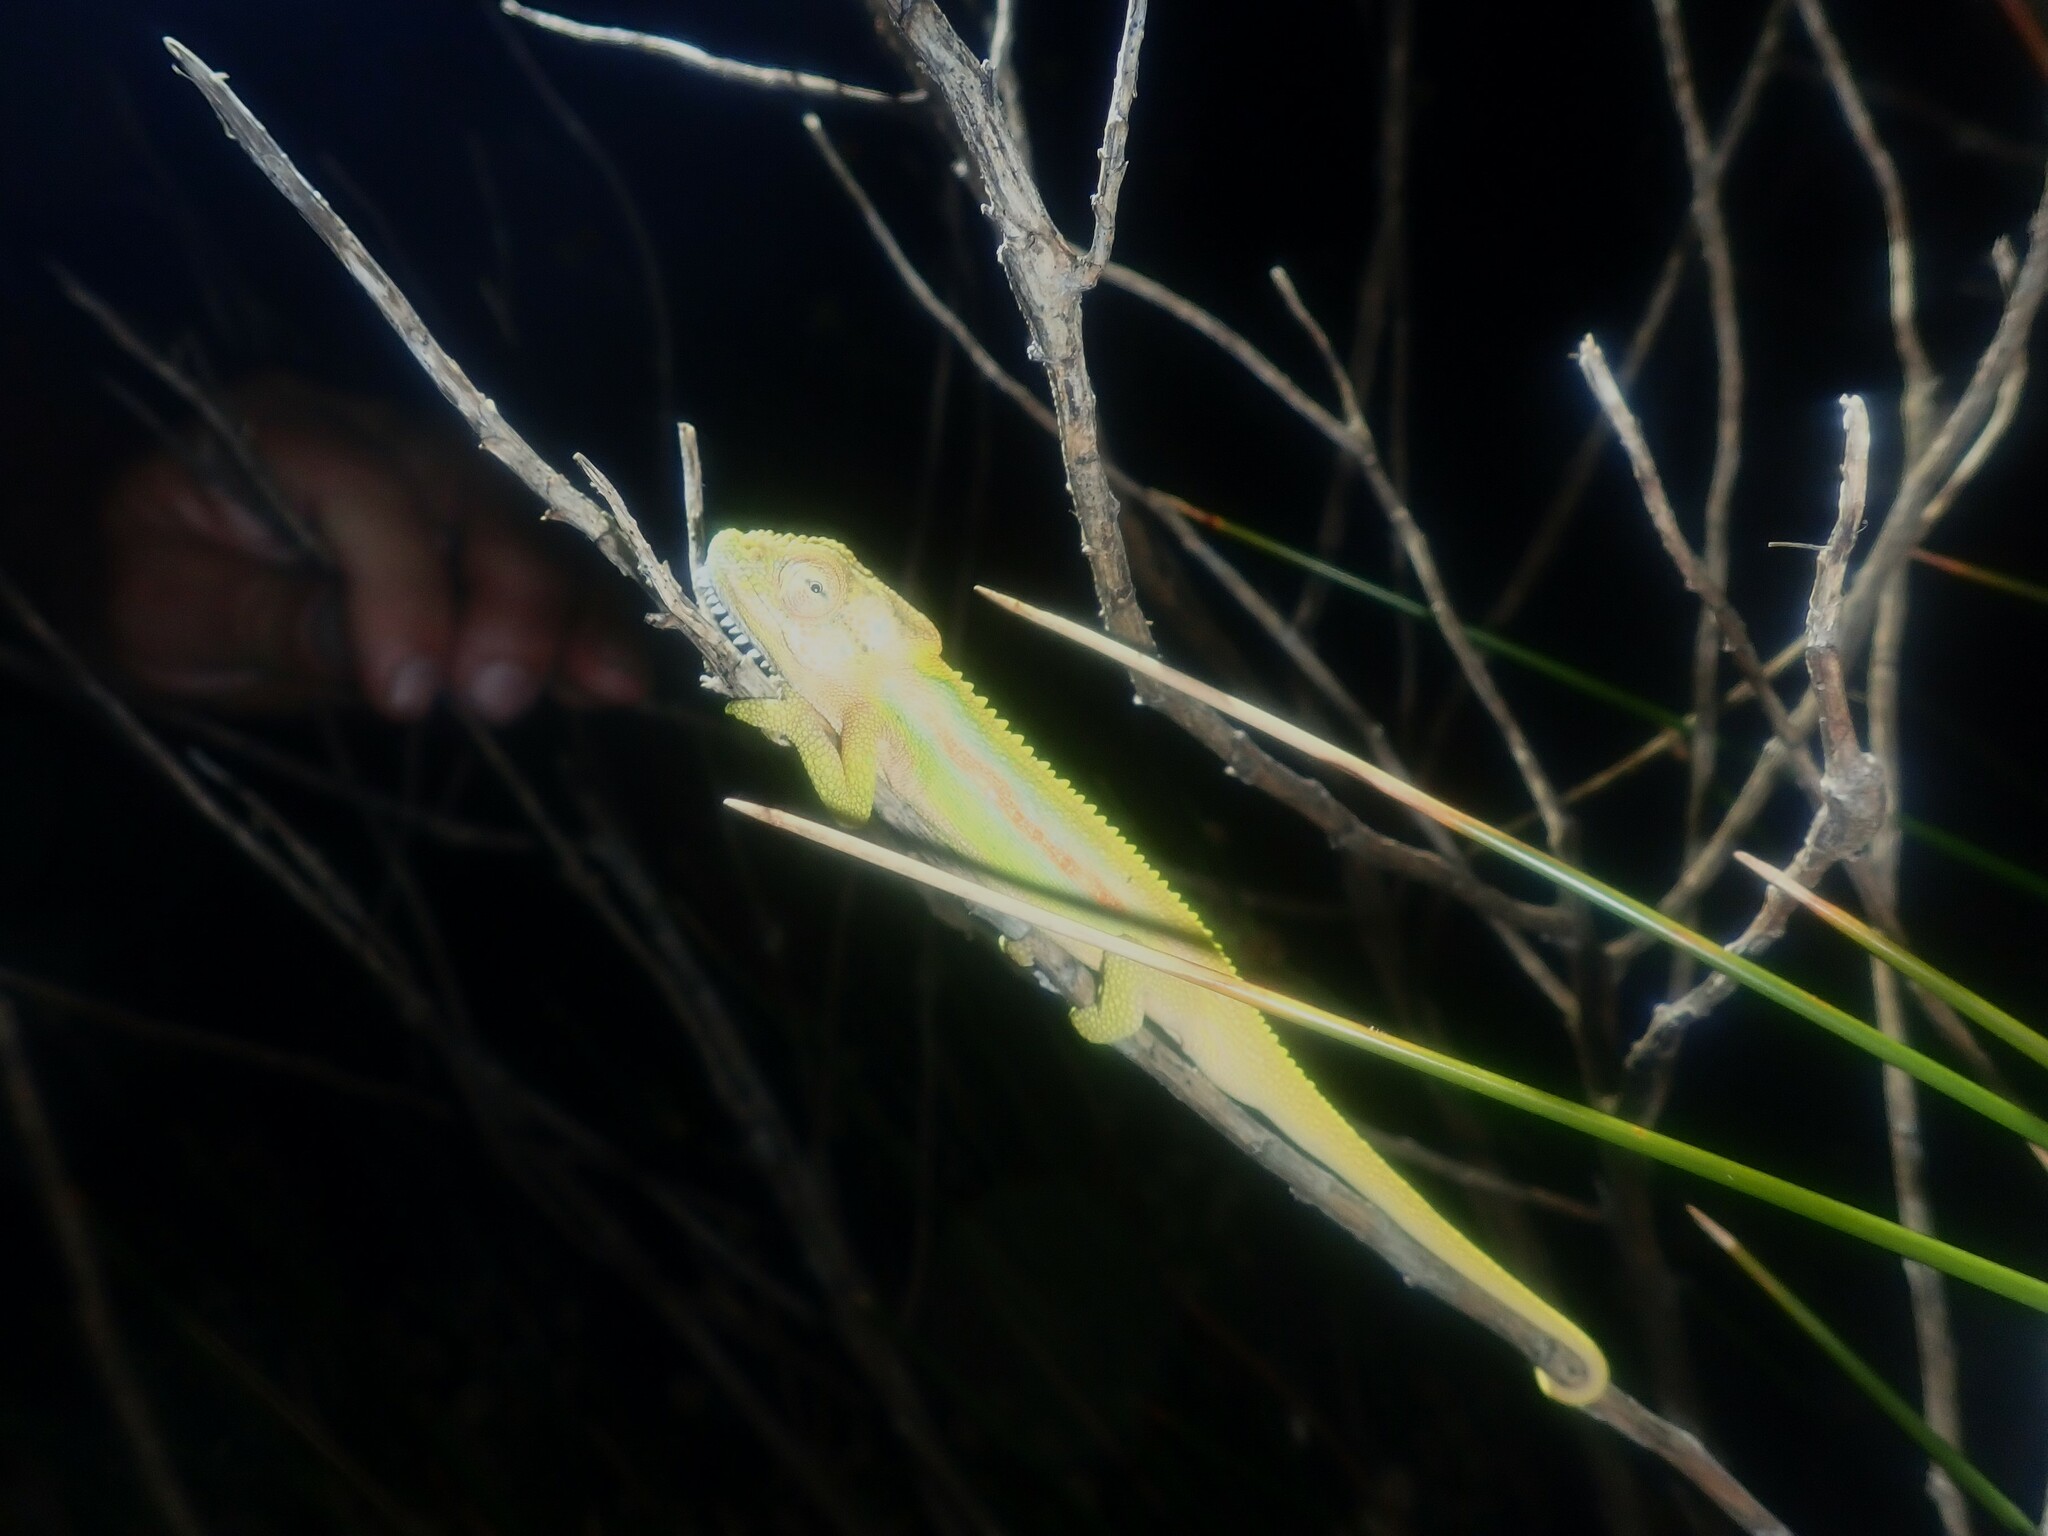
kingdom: Animalia
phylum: Chordata
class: Squamata
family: Chamaeleonidae
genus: Bradypodion
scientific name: Bradypodion pumilum
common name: Cape dwarf chameleon
